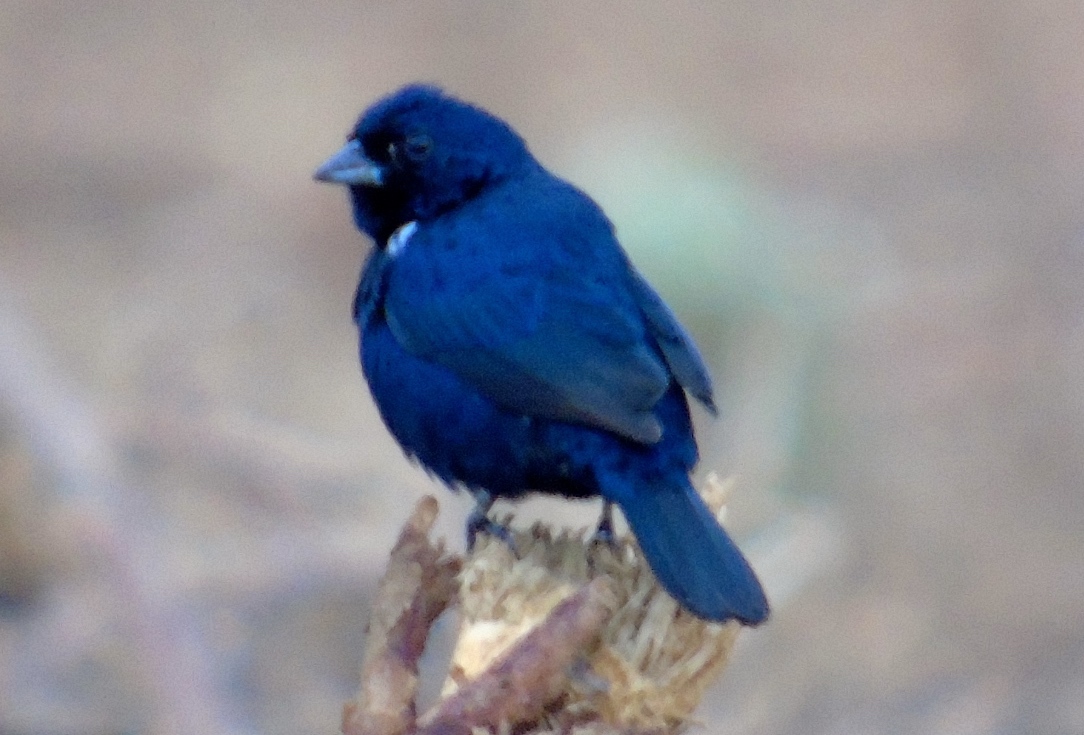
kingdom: Animalia
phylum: Chordata
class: Aves
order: Passeriformes
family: Thraupidae
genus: Volatinia
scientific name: Volatinia jacarina
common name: Blue-black grassquit
